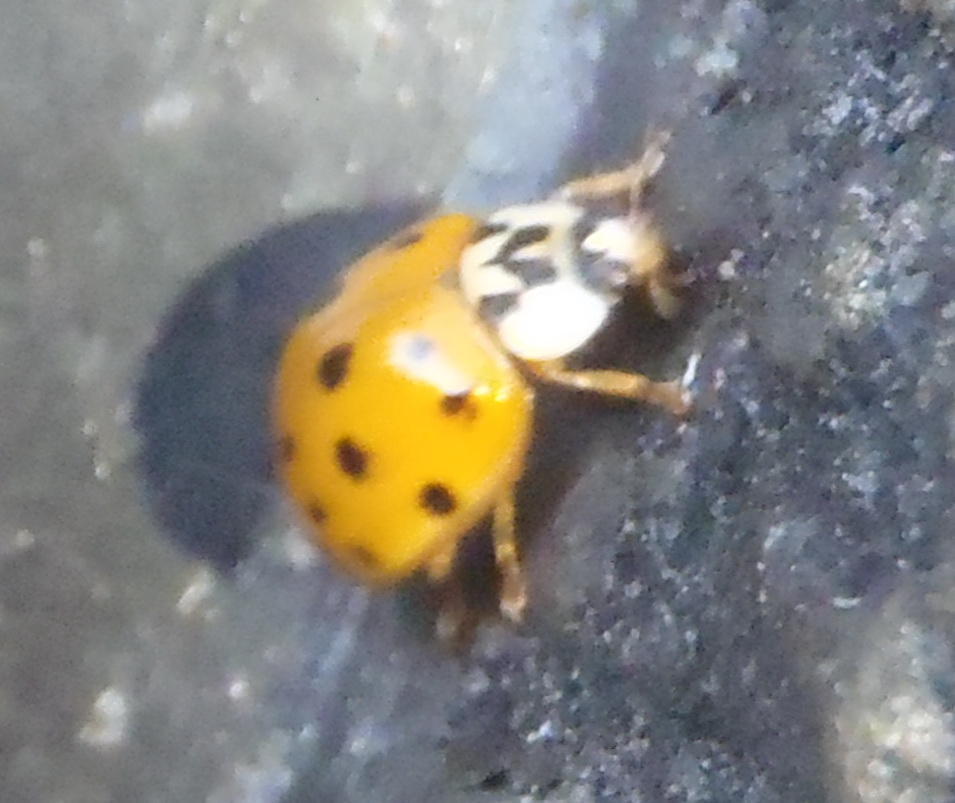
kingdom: Animalia
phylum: Arthropoda
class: Insecta
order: Coleoptera
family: Coccinellidae
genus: Harmonia
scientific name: Harmonia axyridis
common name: Harlequin ladybird
